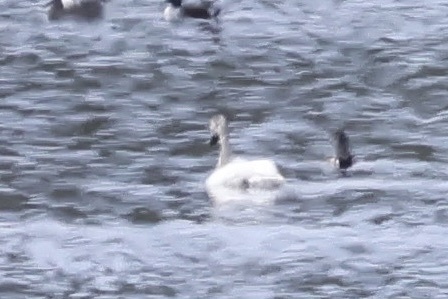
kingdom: Animalia
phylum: Chordata
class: Aves
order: Anseriformes
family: Anatidae
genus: Cygnus
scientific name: Cygnus columbianus
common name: Tundra swan
